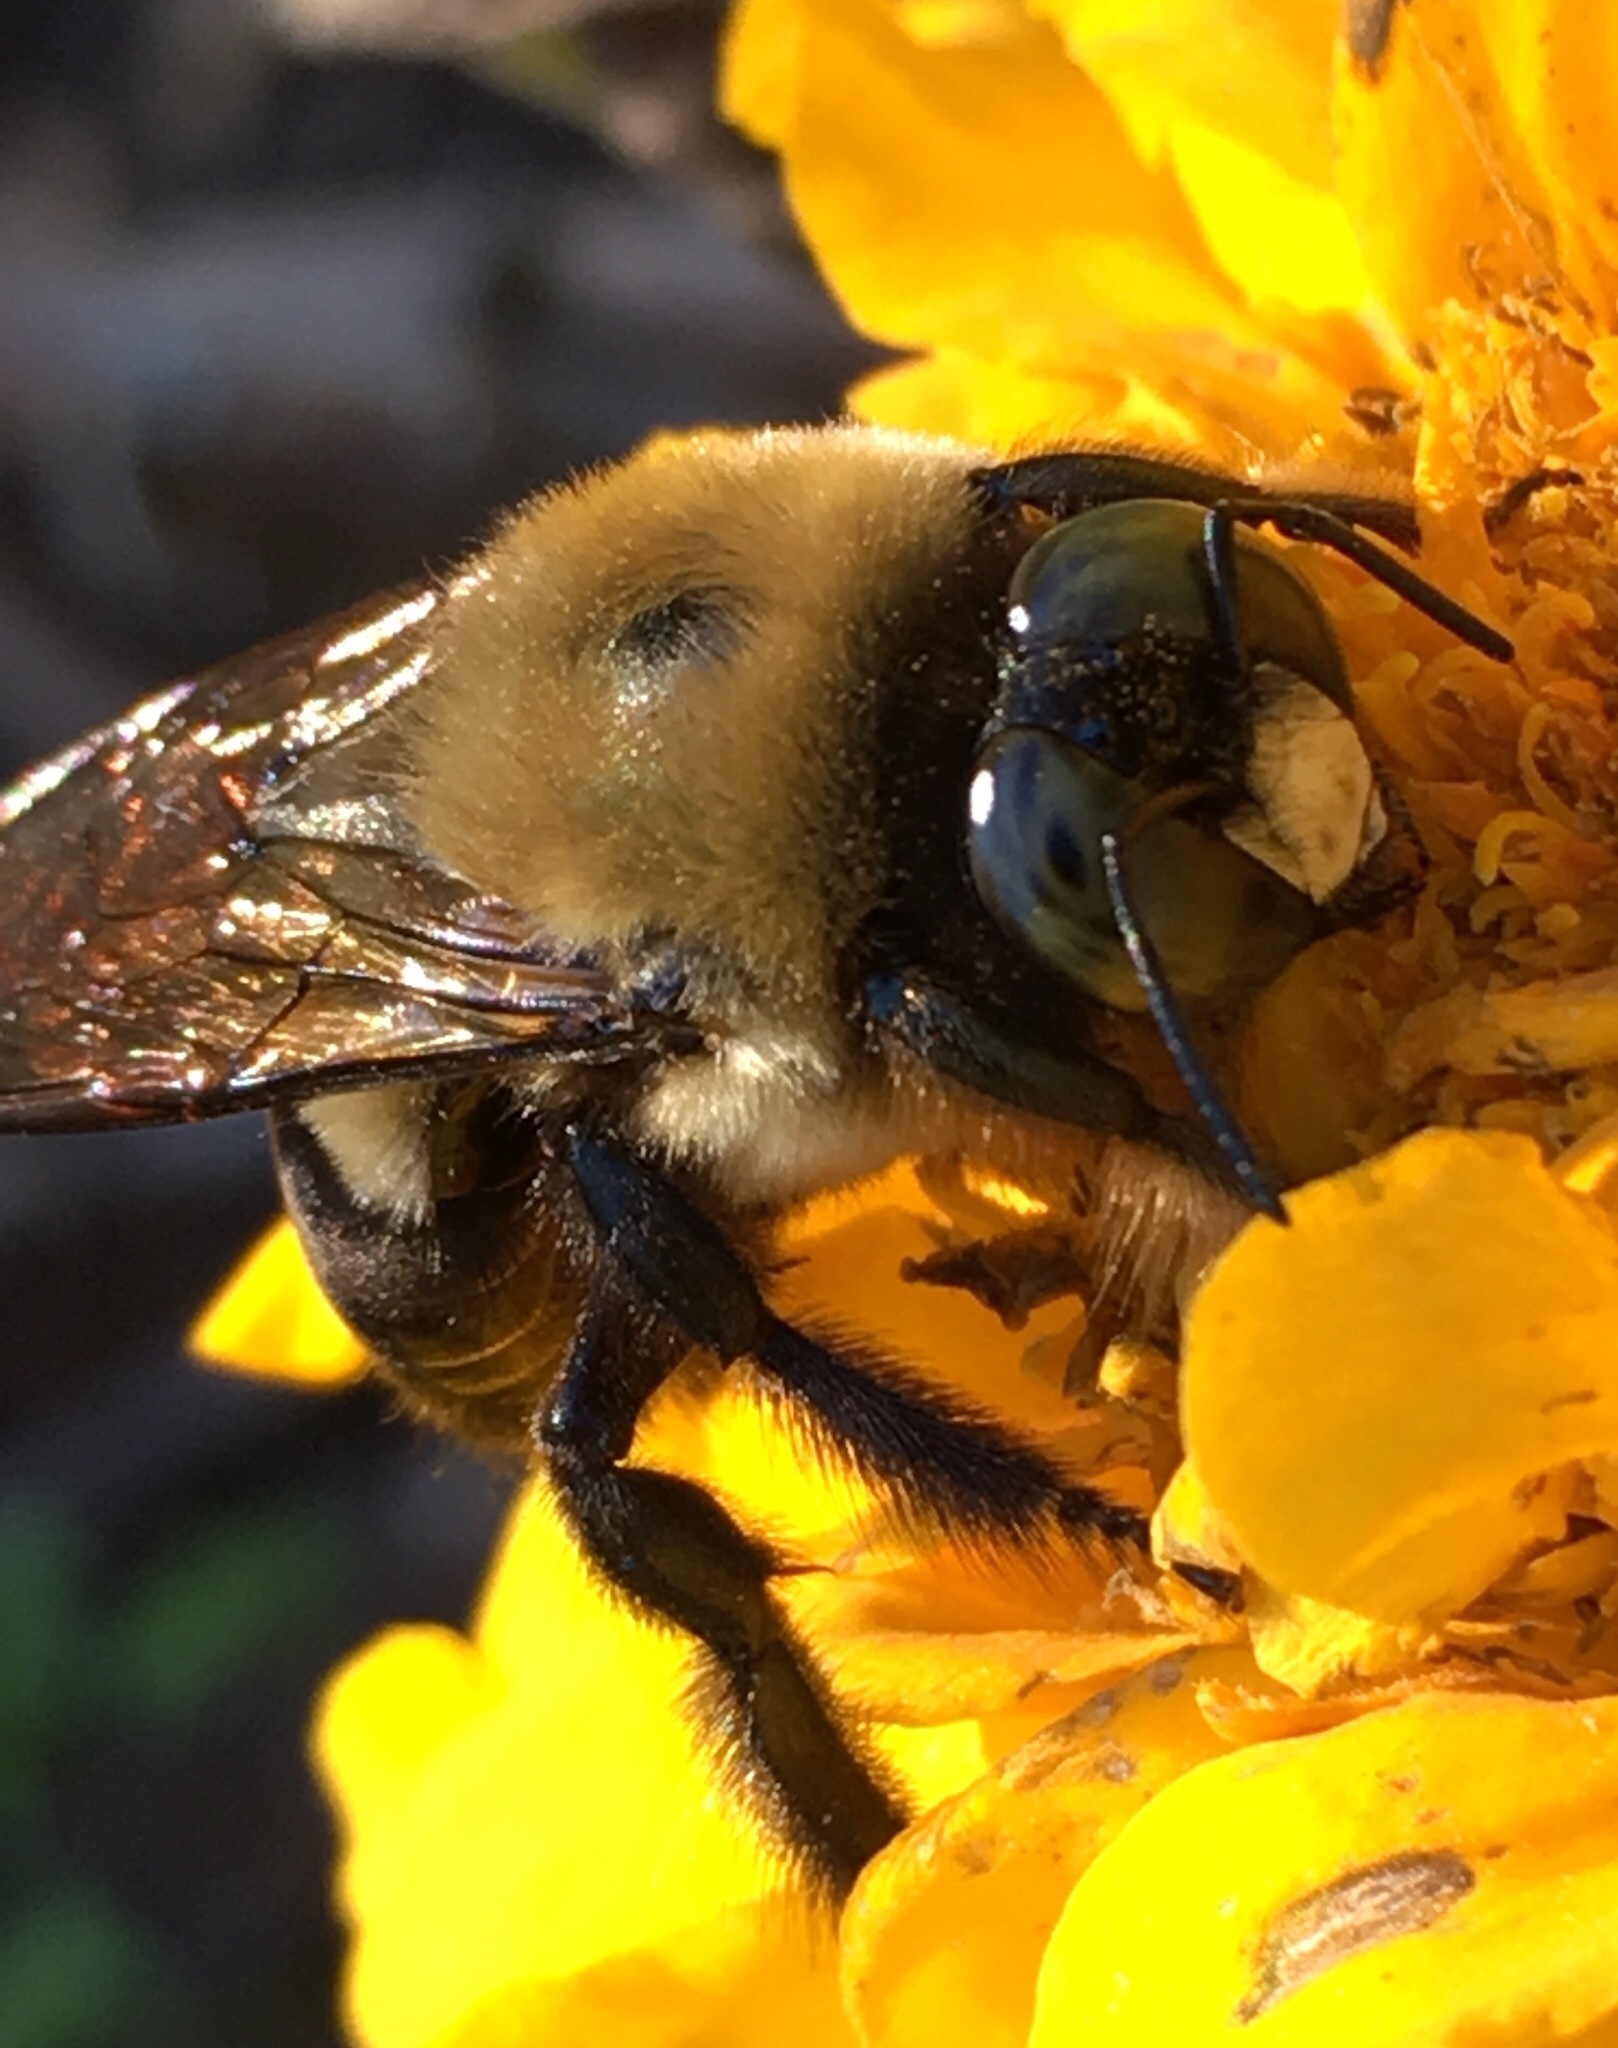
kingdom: Animalia
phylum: Arthropoda
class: Insecta
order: Hymenoptera
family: Apidae
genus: Xylocopa
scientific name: Xylocopa virginica
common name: Carpenter bee
